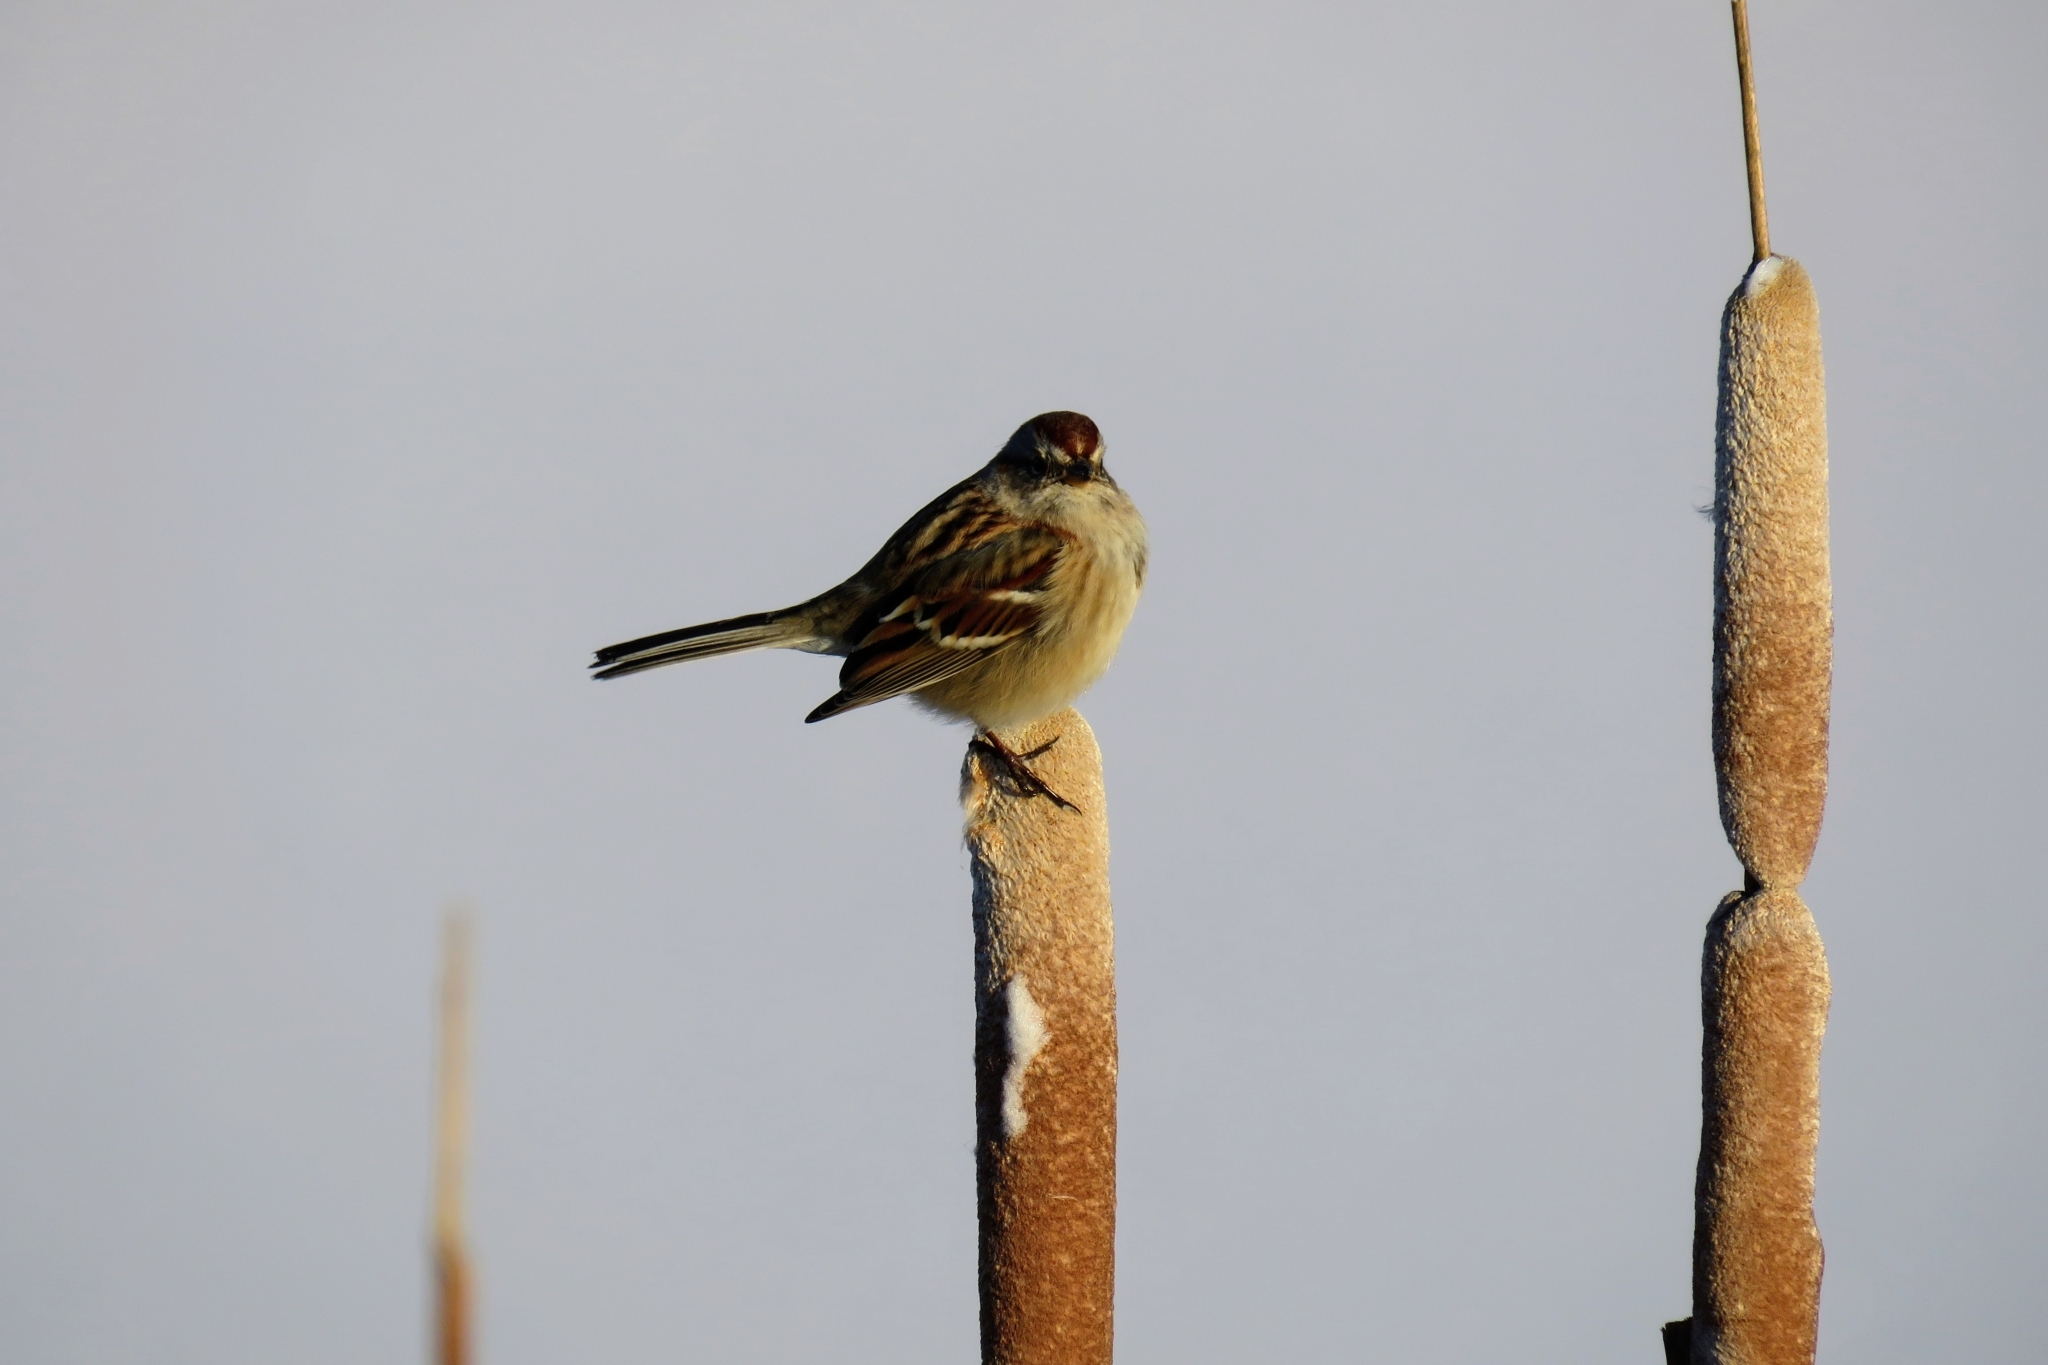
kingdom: Animalia
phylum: Chordata
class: Aves
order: Passeriformes
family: Passerellidae
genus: Spizelloides
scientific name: Spizelloides arborea
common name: American tree sparrow
